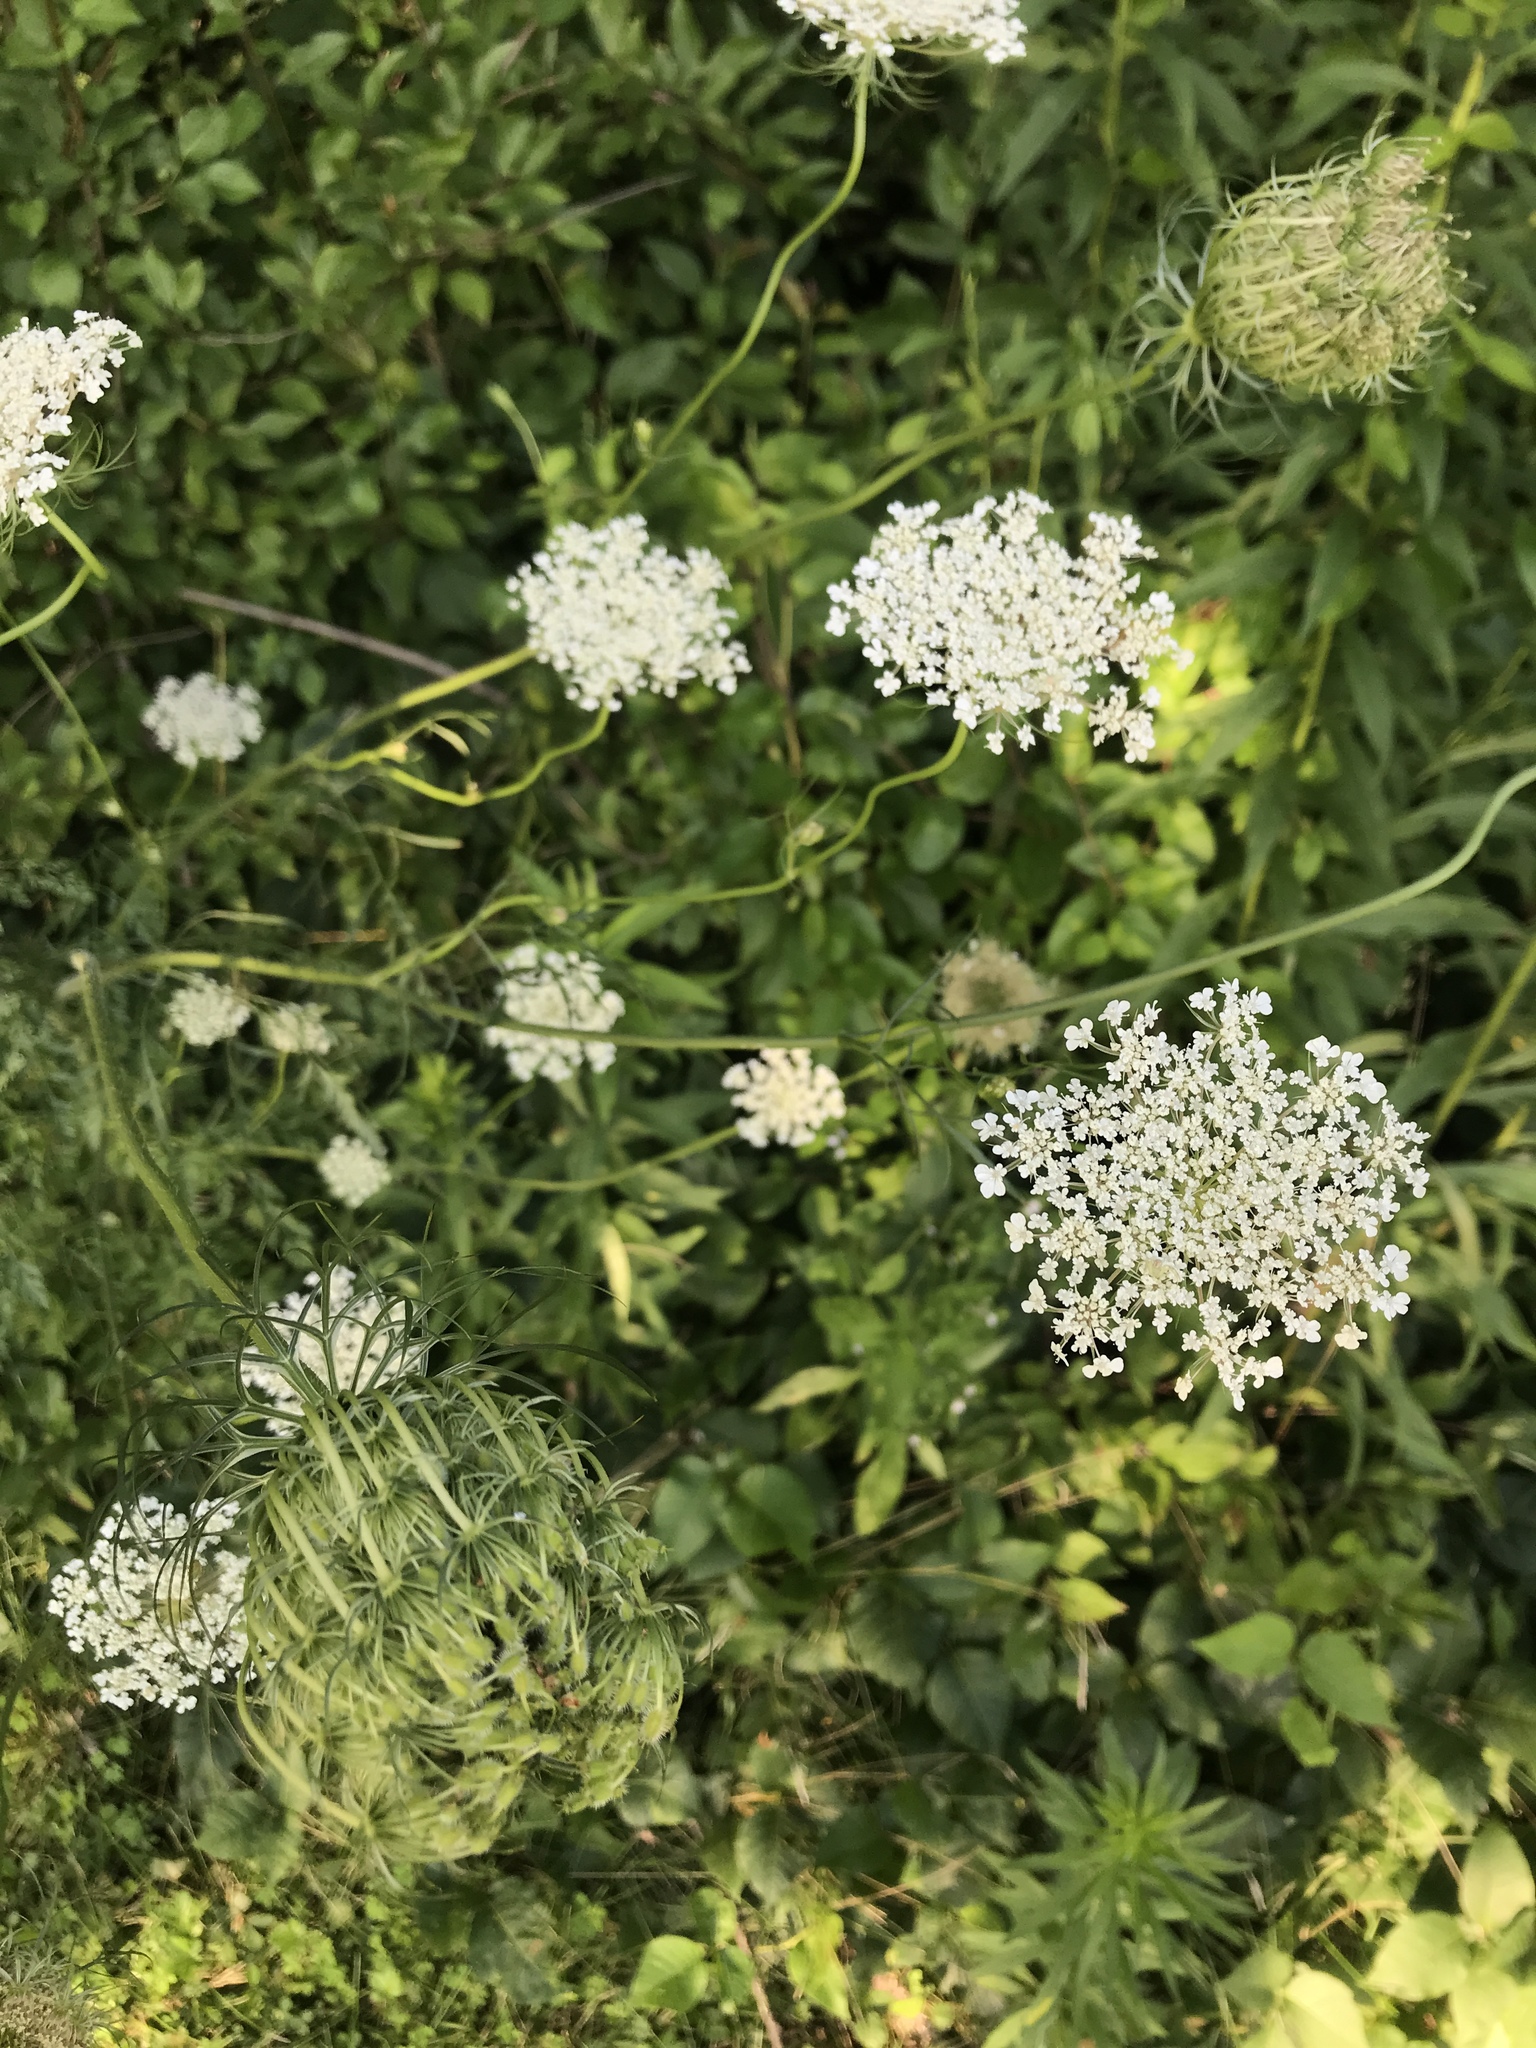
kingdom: Plantae
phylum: Tracheophyta
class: Magnoliopsida
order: Apiales
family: Apiaceae
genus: Daucus
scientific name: Daucus carota
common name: Wild carrot
